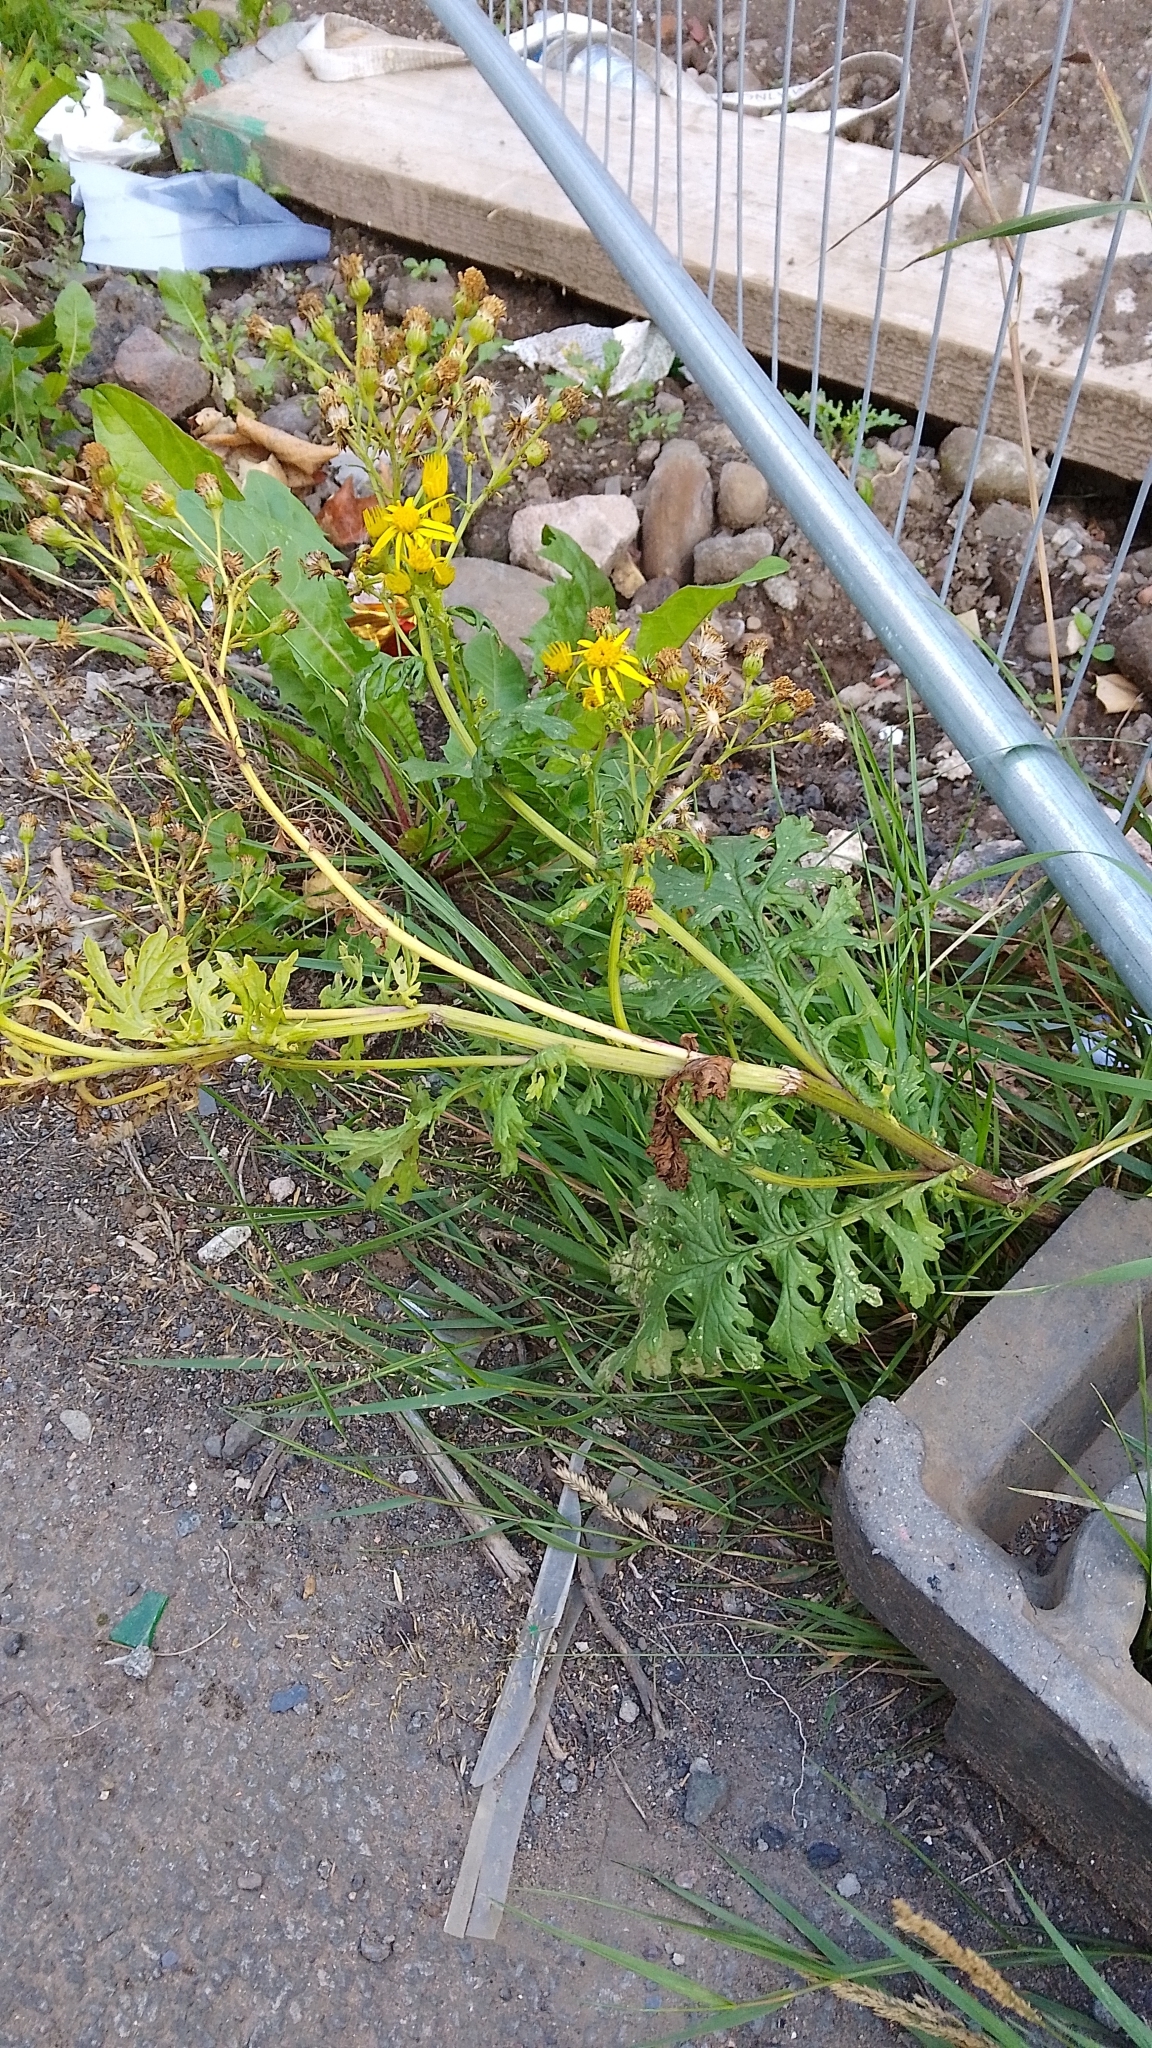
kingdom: Plantae
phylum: Tracheophyta
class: Magnoliopsida
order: Asterales
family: Asteraceae
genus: Jacobaea
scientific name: Jacobaea vulgaris
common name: Stinking willie
